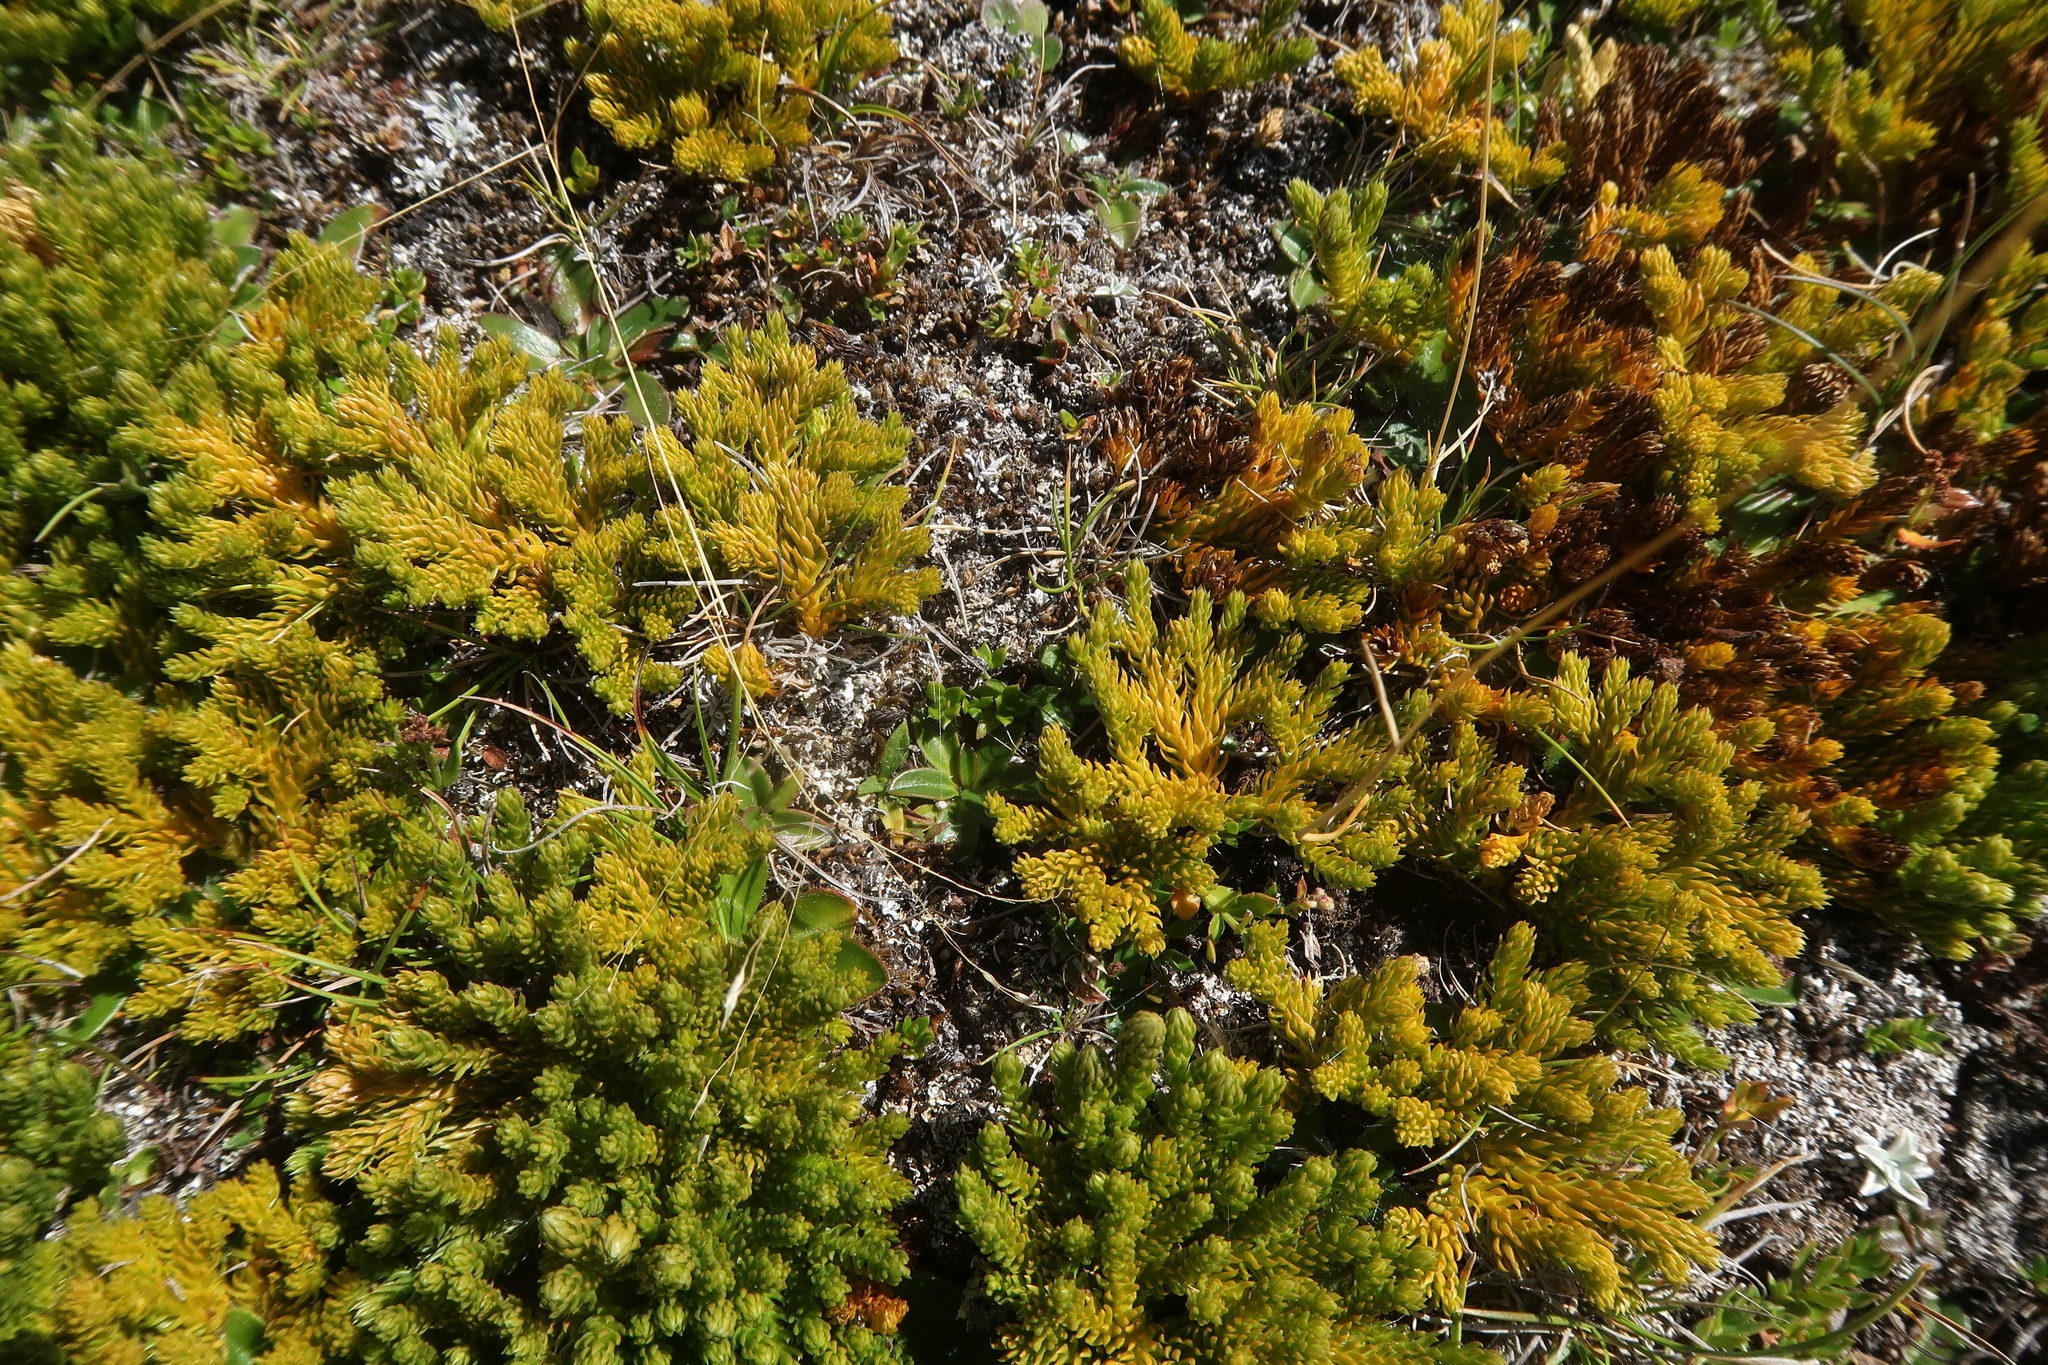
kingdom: Plantae
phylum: Tracheophyta
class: Lycopodiopsida
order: Lycopodiales
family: Lycopodiaceae
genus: Austrolycopodium
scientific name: Austrolycopodium fastigiatum
